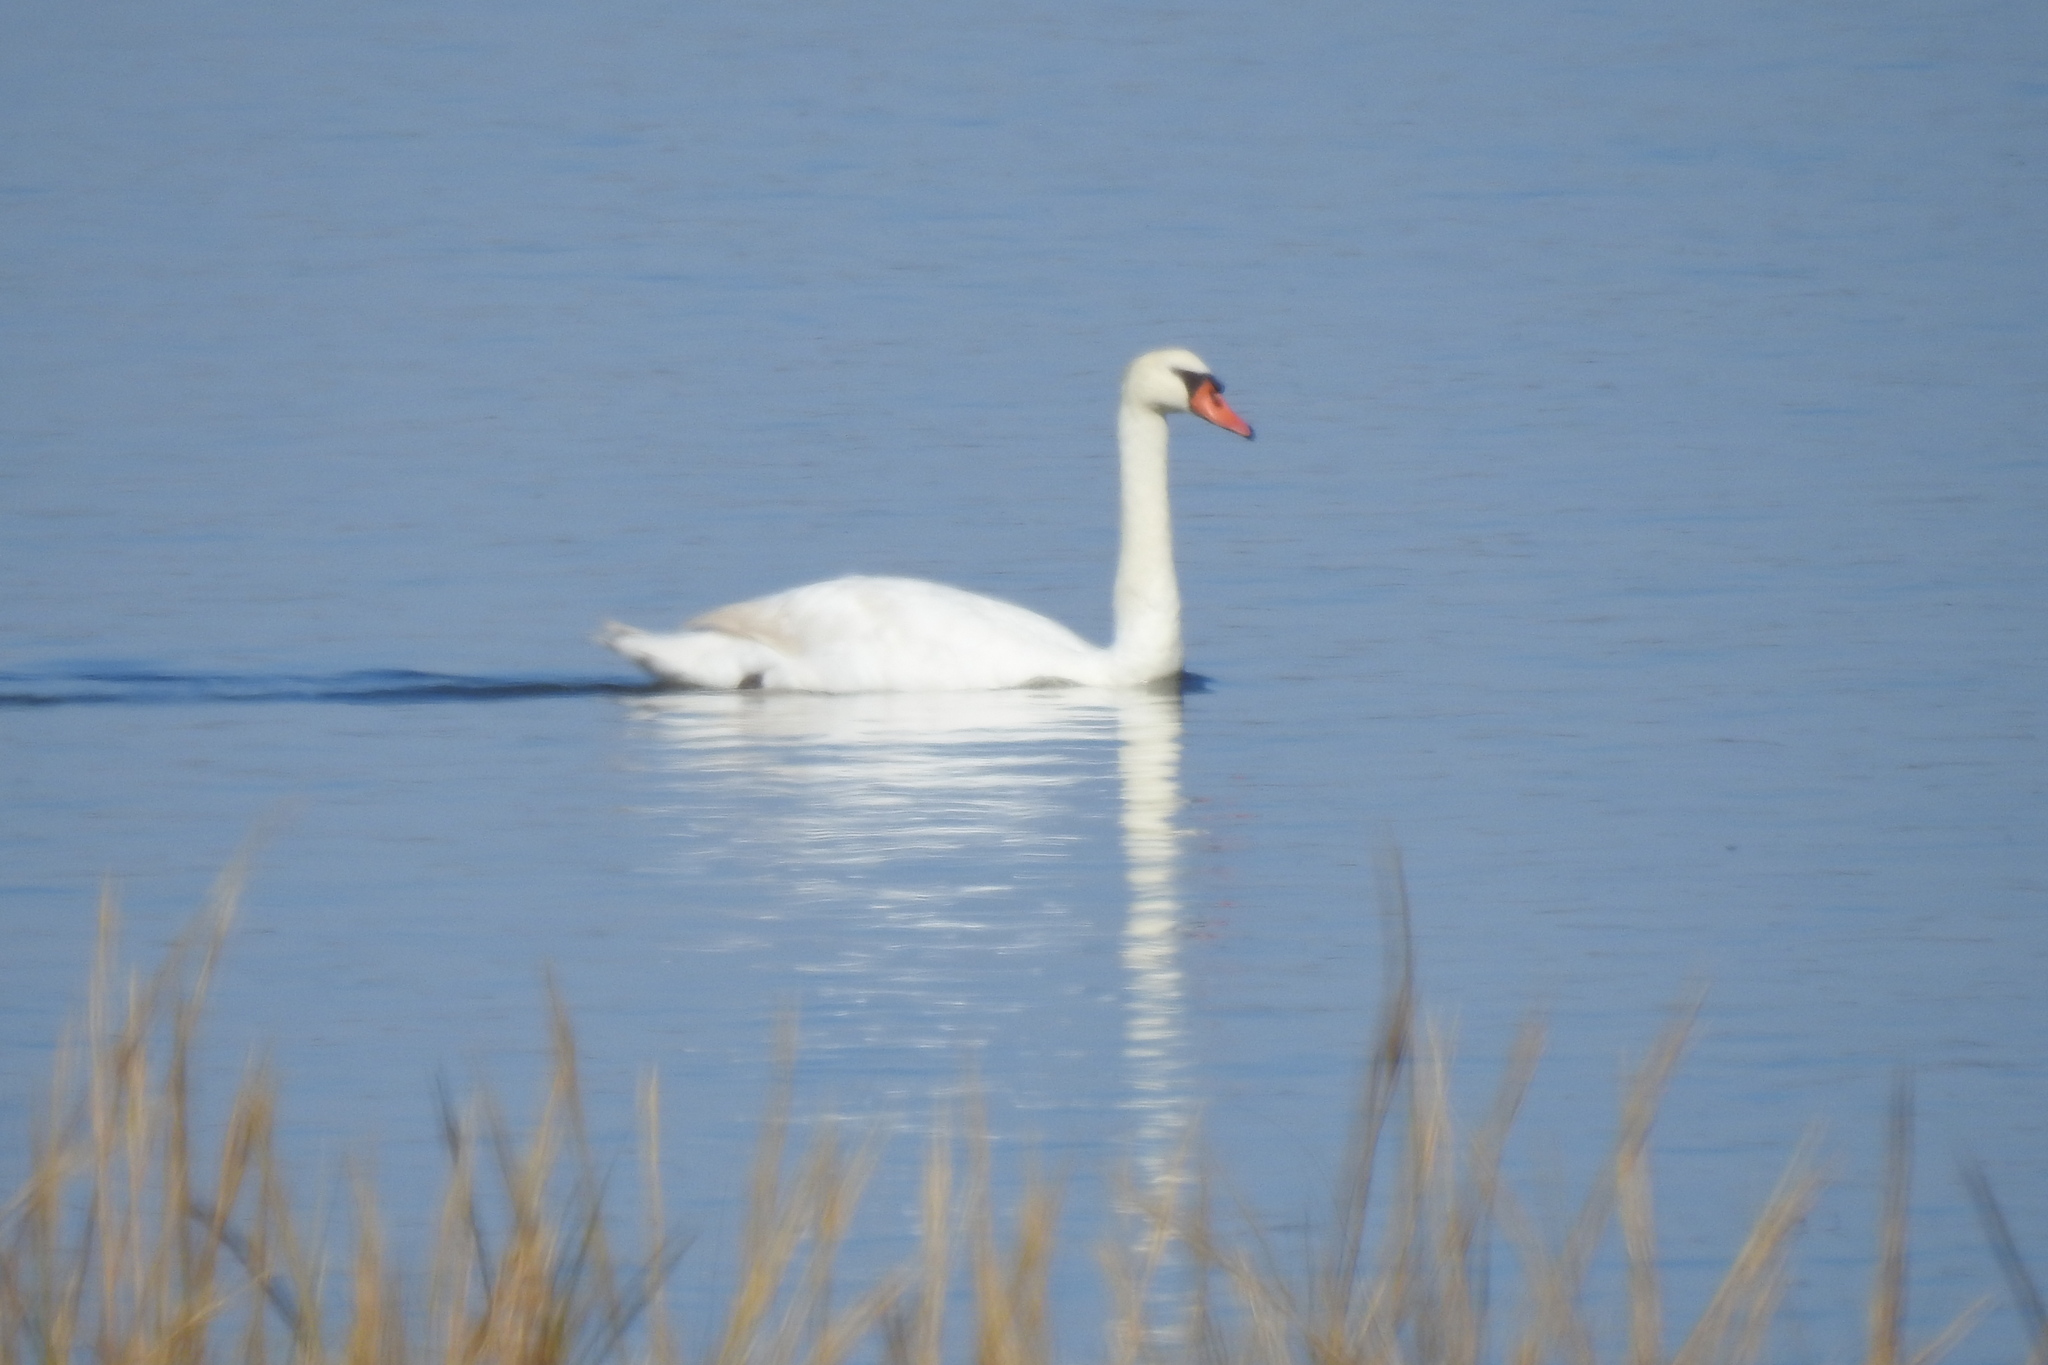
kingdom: Animalia
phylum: Chordata
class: Aves
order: Anseriformes
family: Anatidae
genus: Cygnus
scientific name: Cygnus olor
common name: Mute swan
